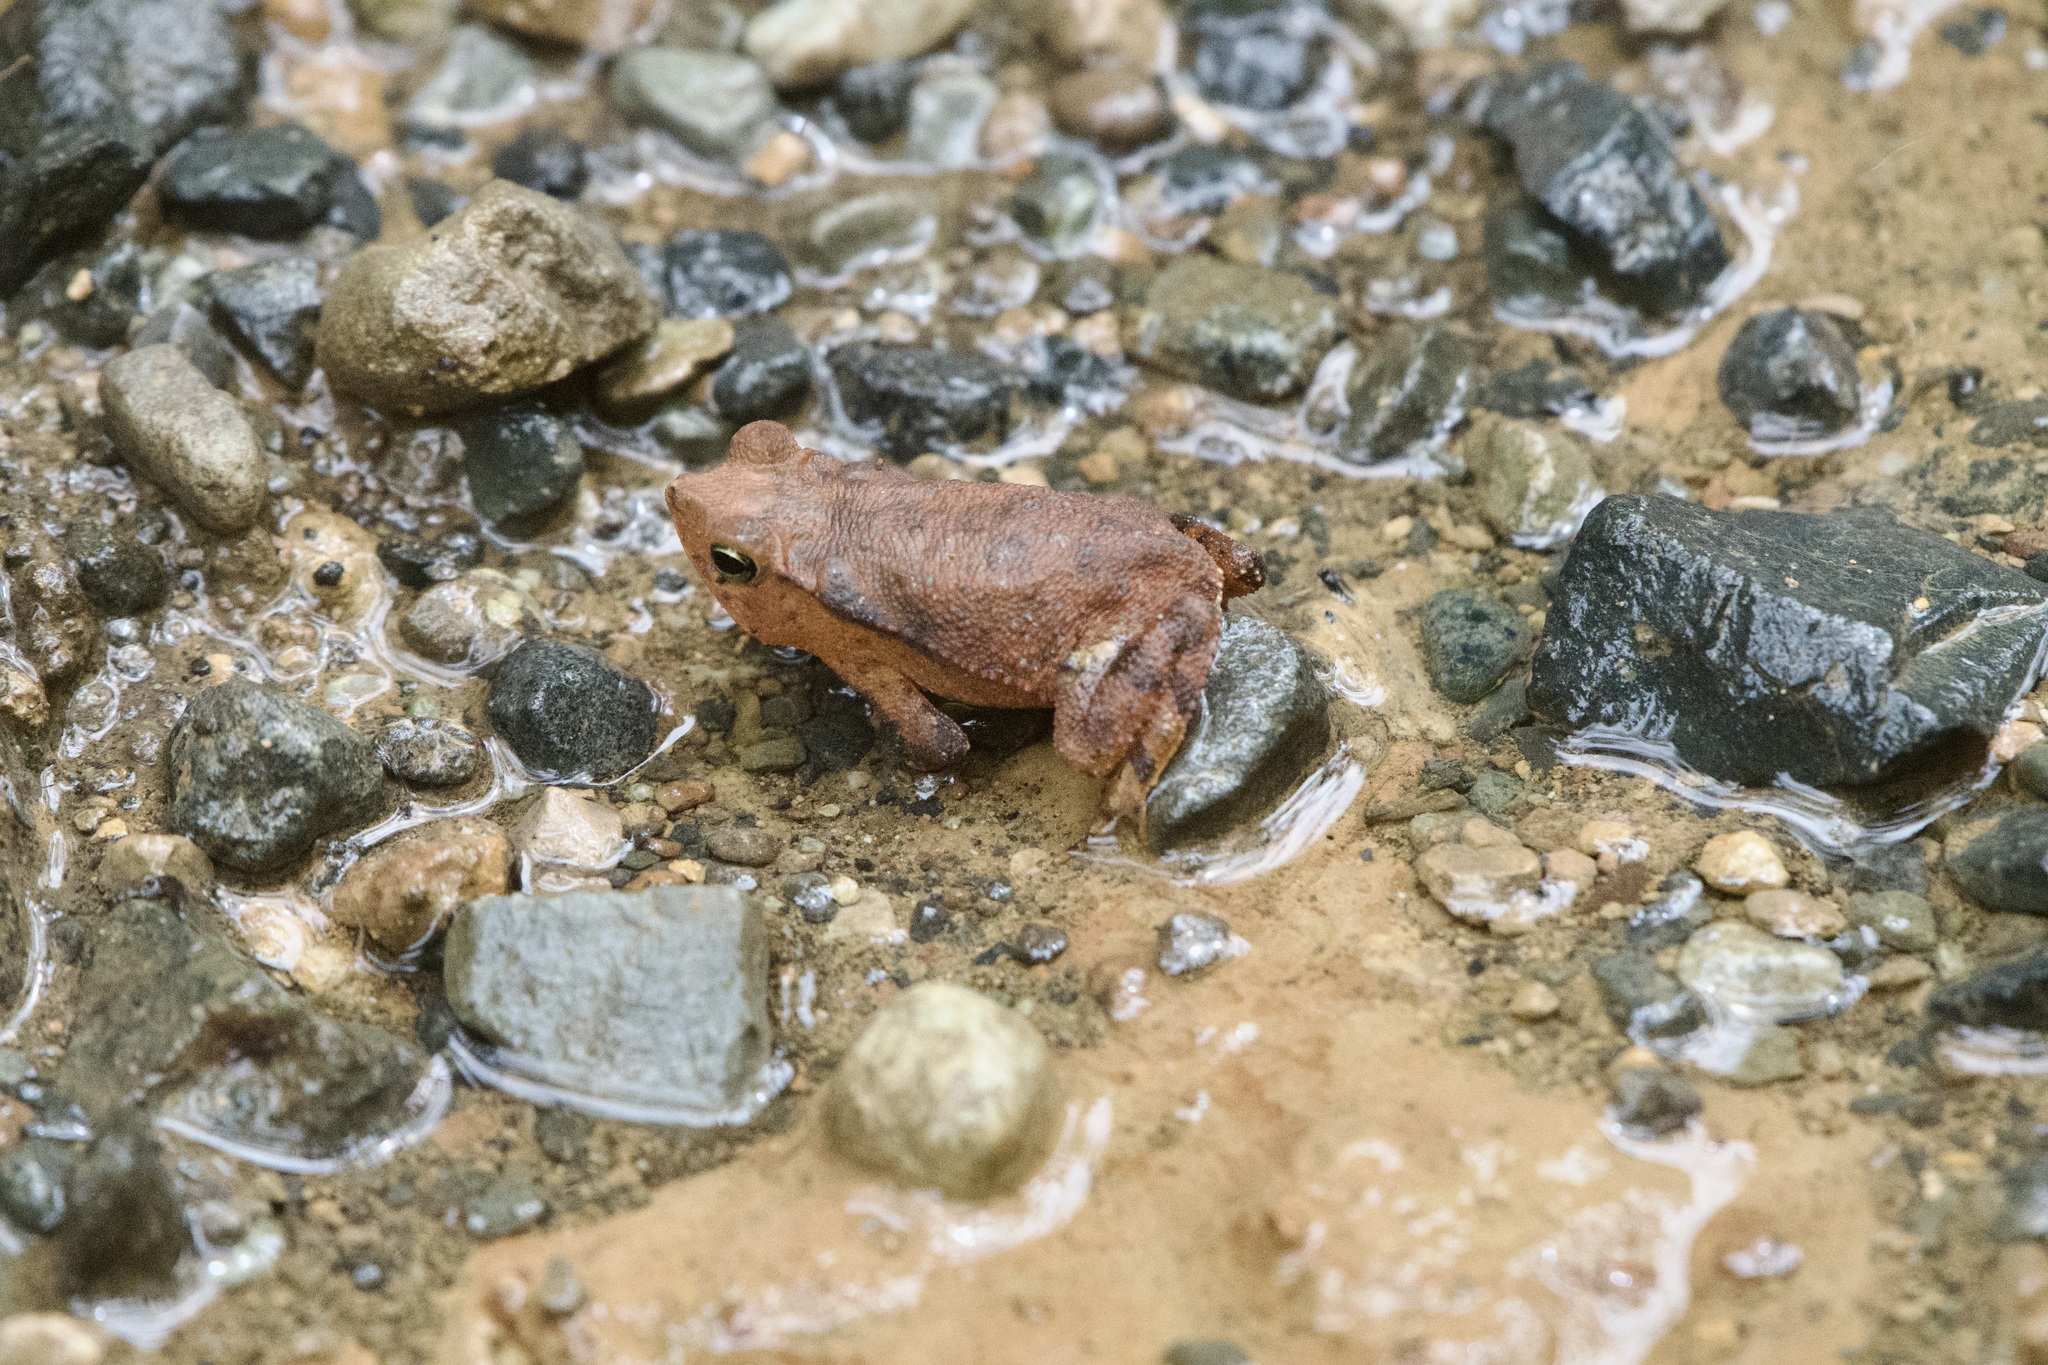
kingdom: Animalia
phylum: Chordata
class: Amphibia
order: Anura
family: Bufonidae
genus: Rhinella
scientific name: Rhinella alata
